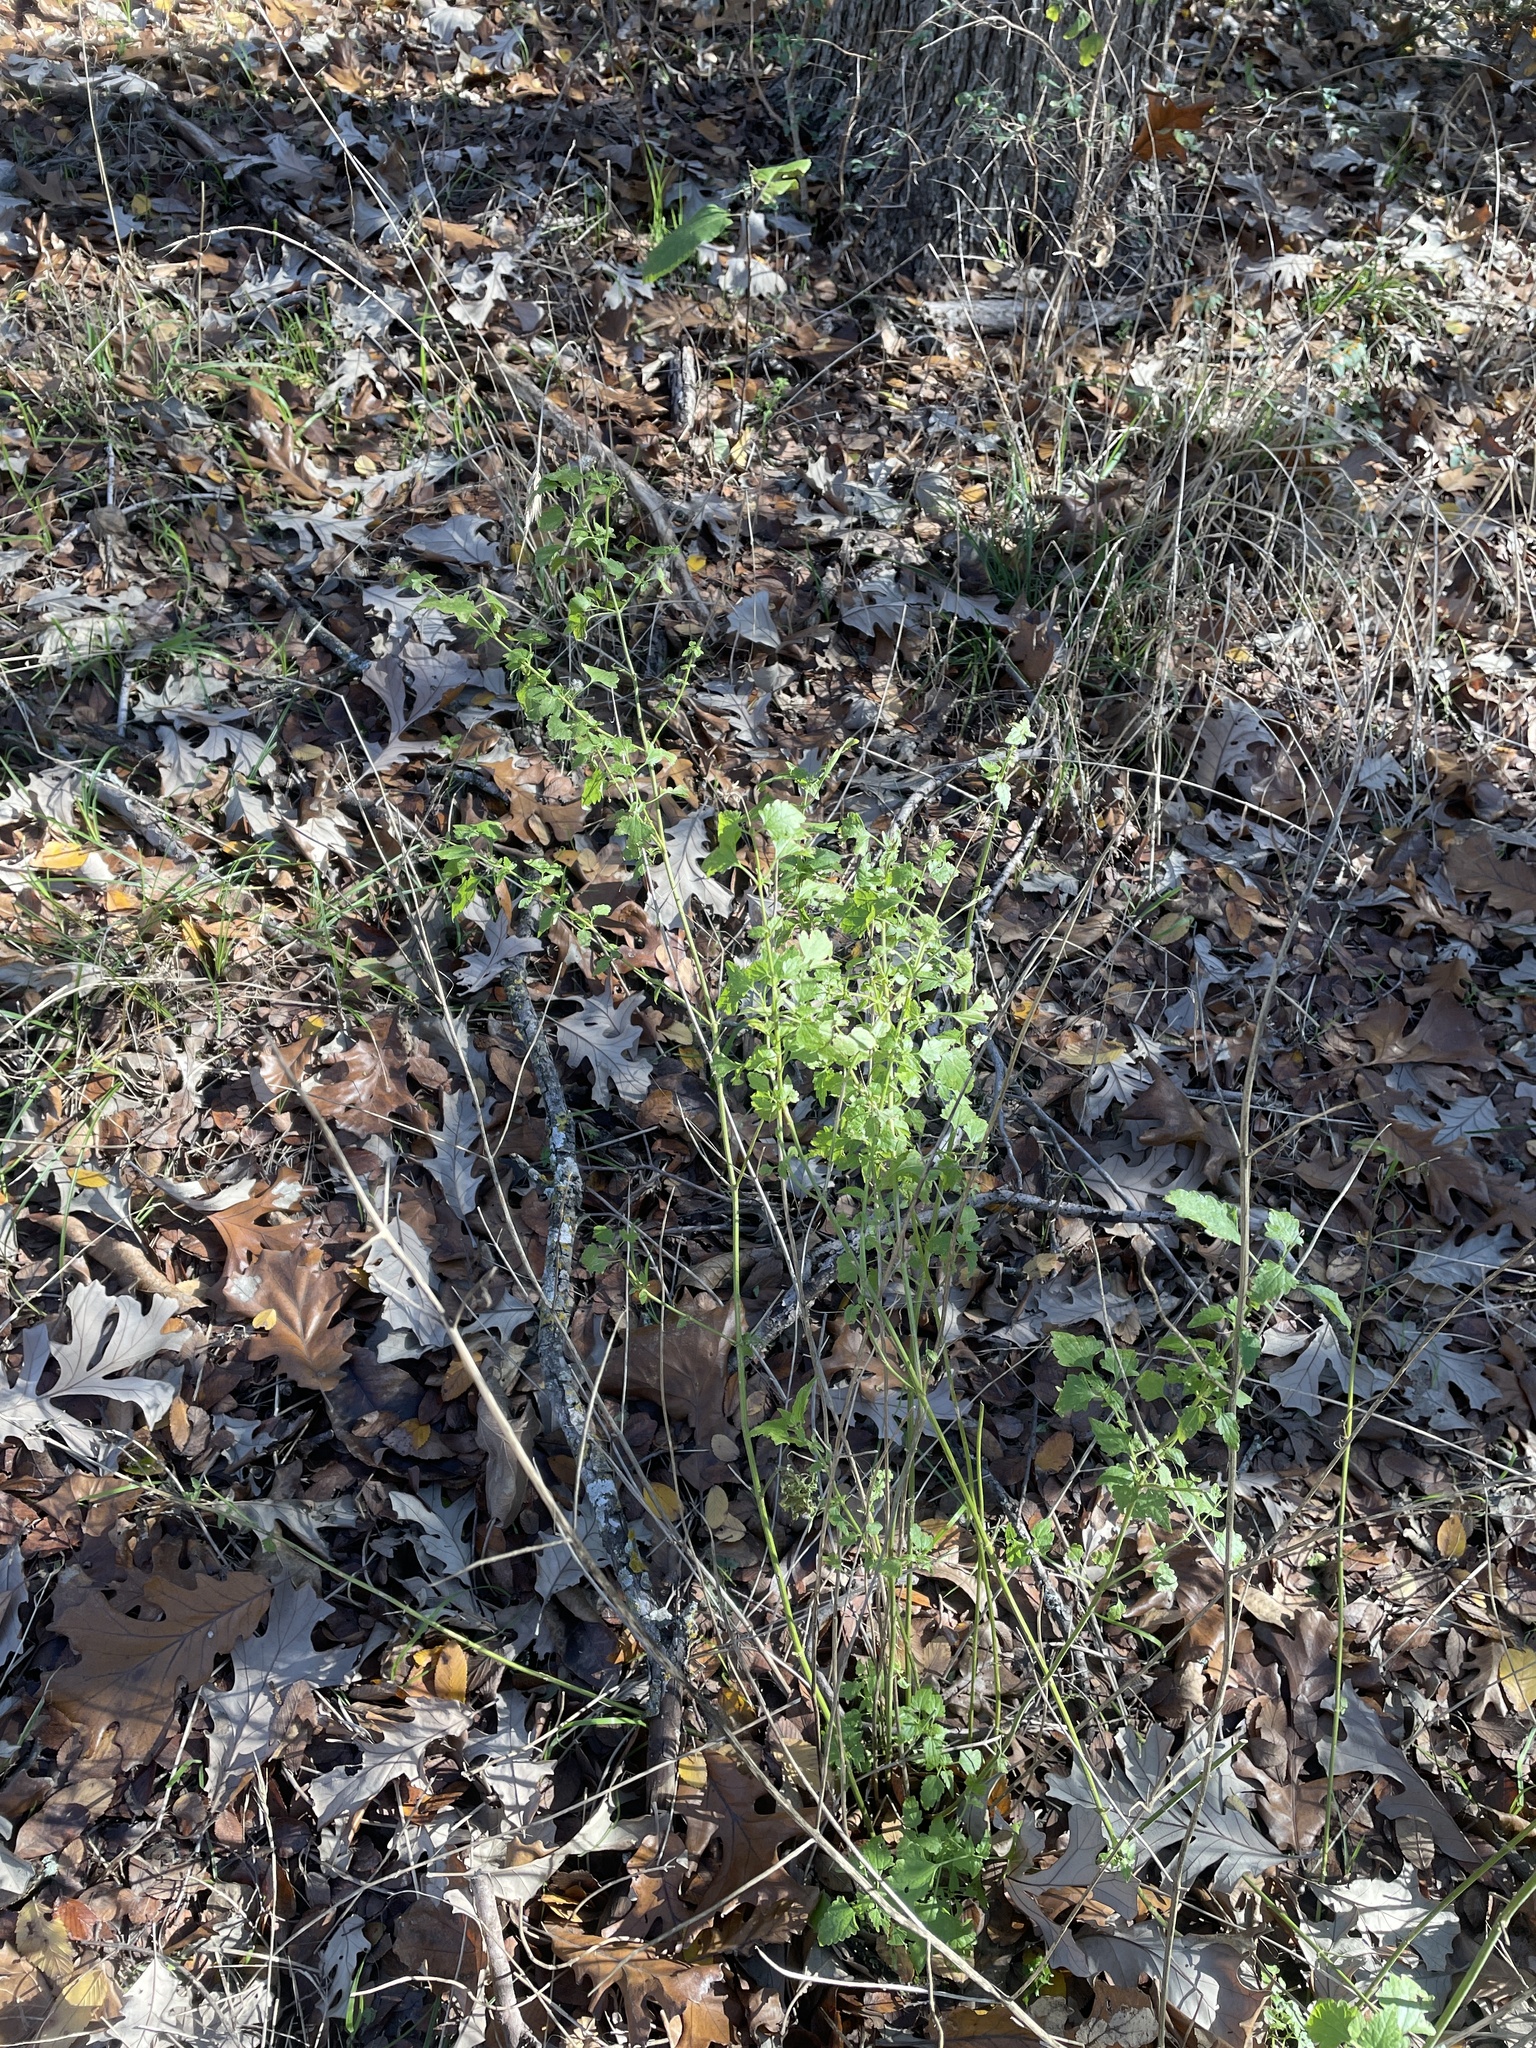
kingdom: Plantae
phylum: Tracheophyta
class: Magnoliopsida
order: Asterales
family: Asteraceae
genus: Fleischmannia
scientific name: Fleischmannia incarnata
